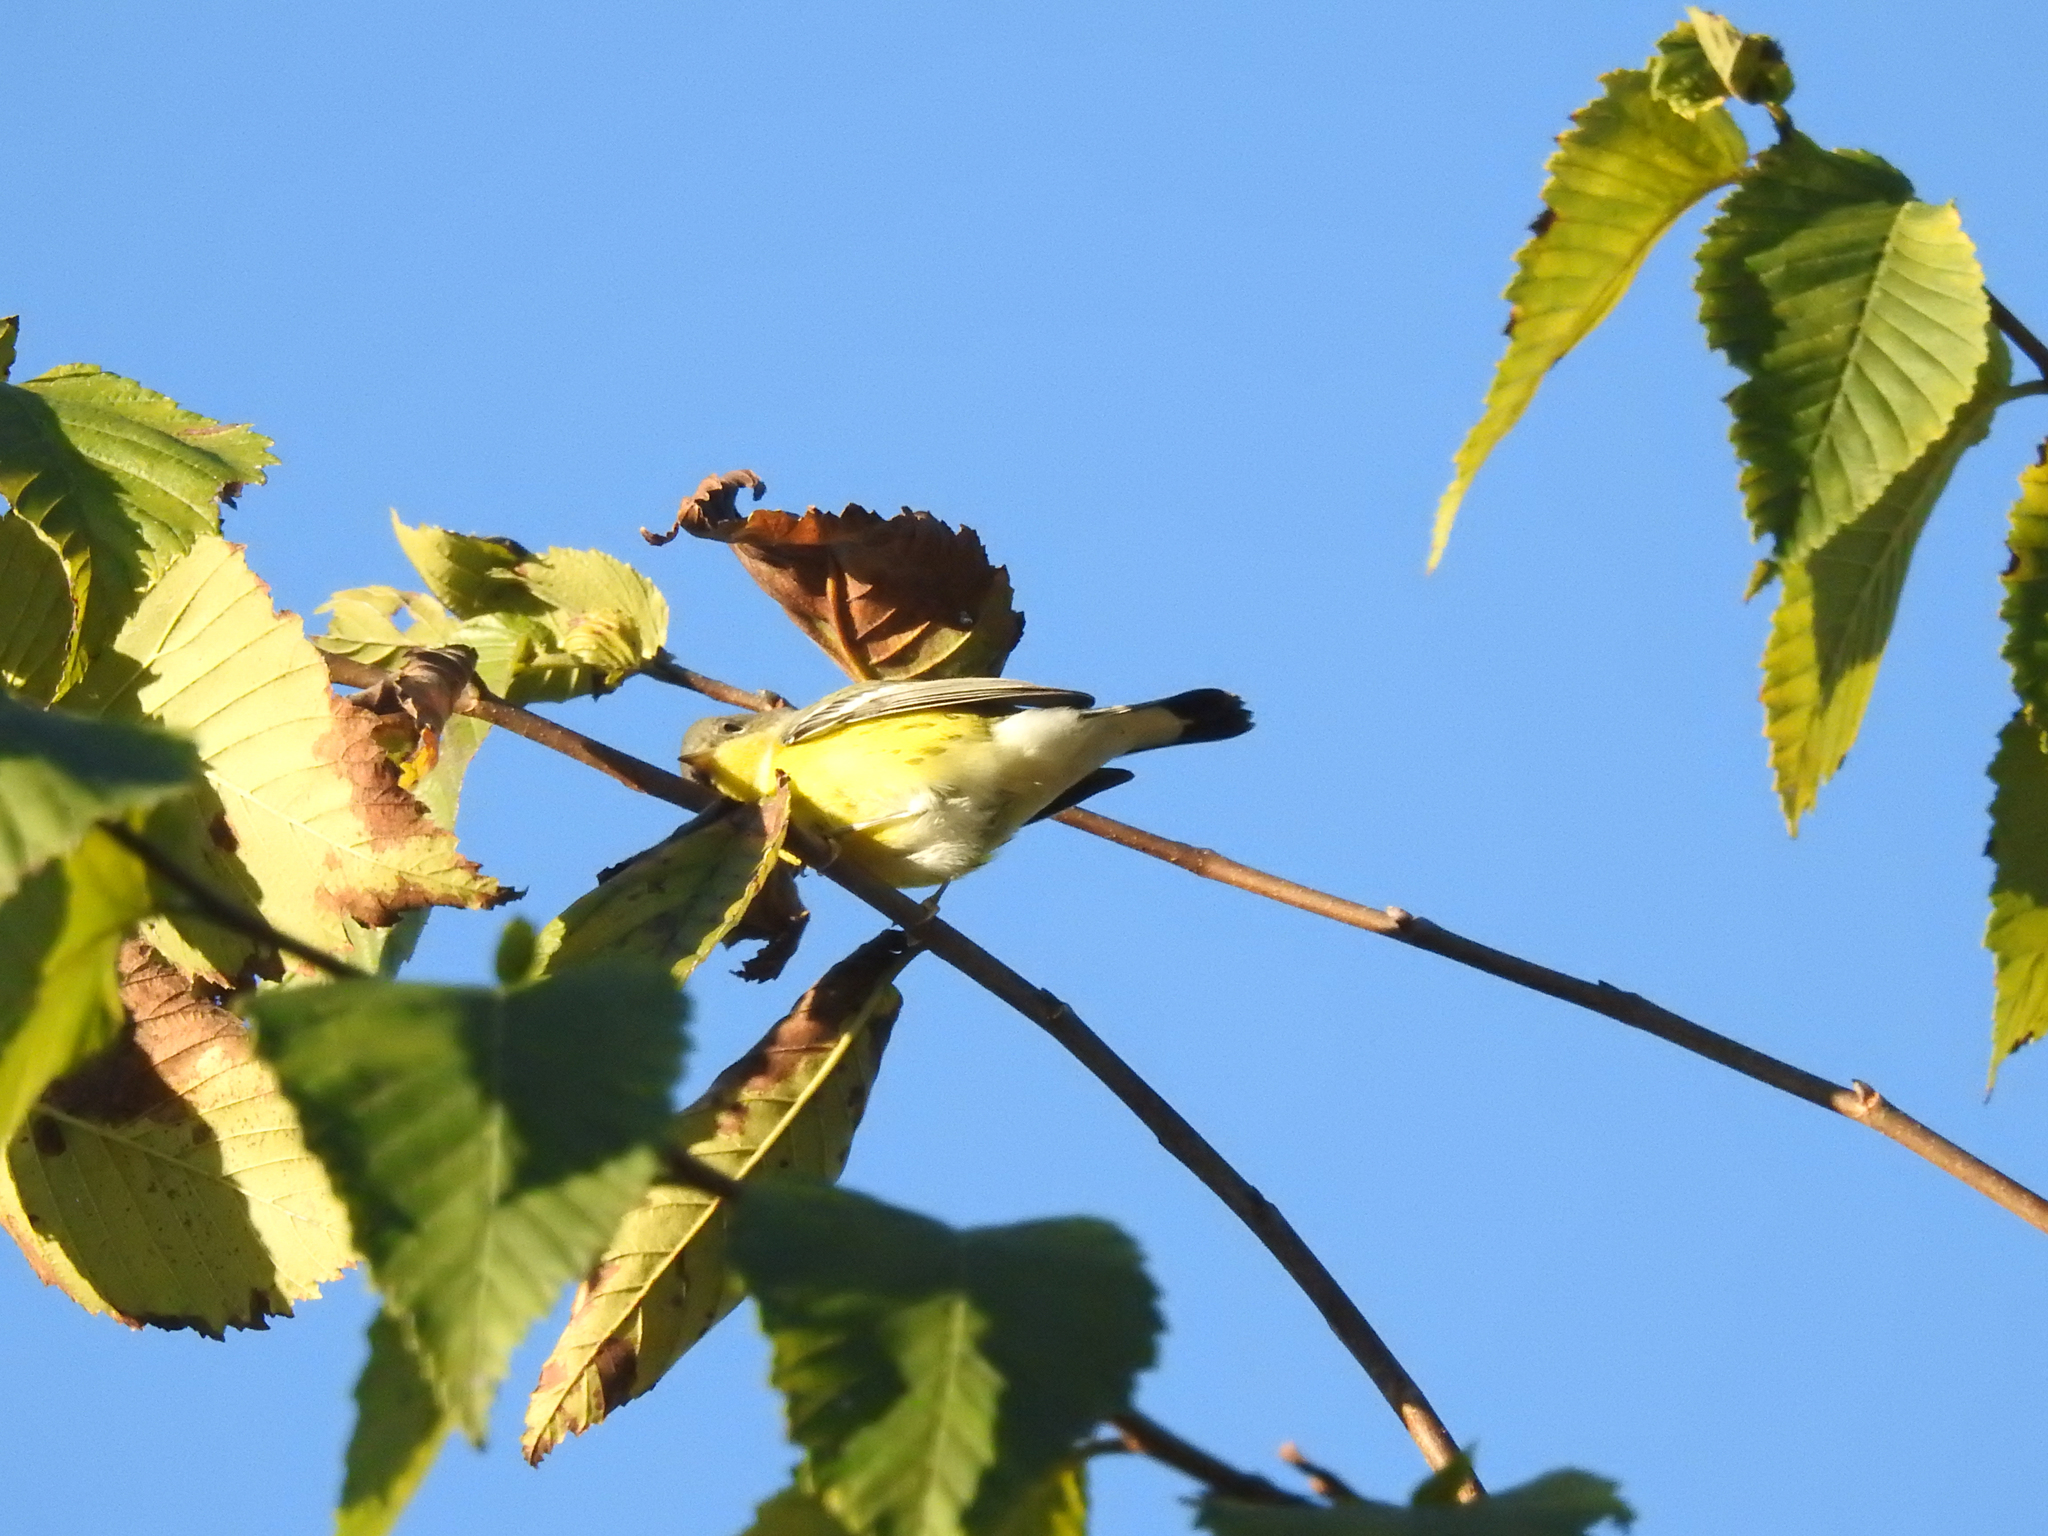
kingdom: Animalia
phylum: Chordata
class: Aves
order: Passeriformes
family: Parulidae
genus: Setophaga
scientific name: Setophaga magnolia
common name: Magnolia warbler
